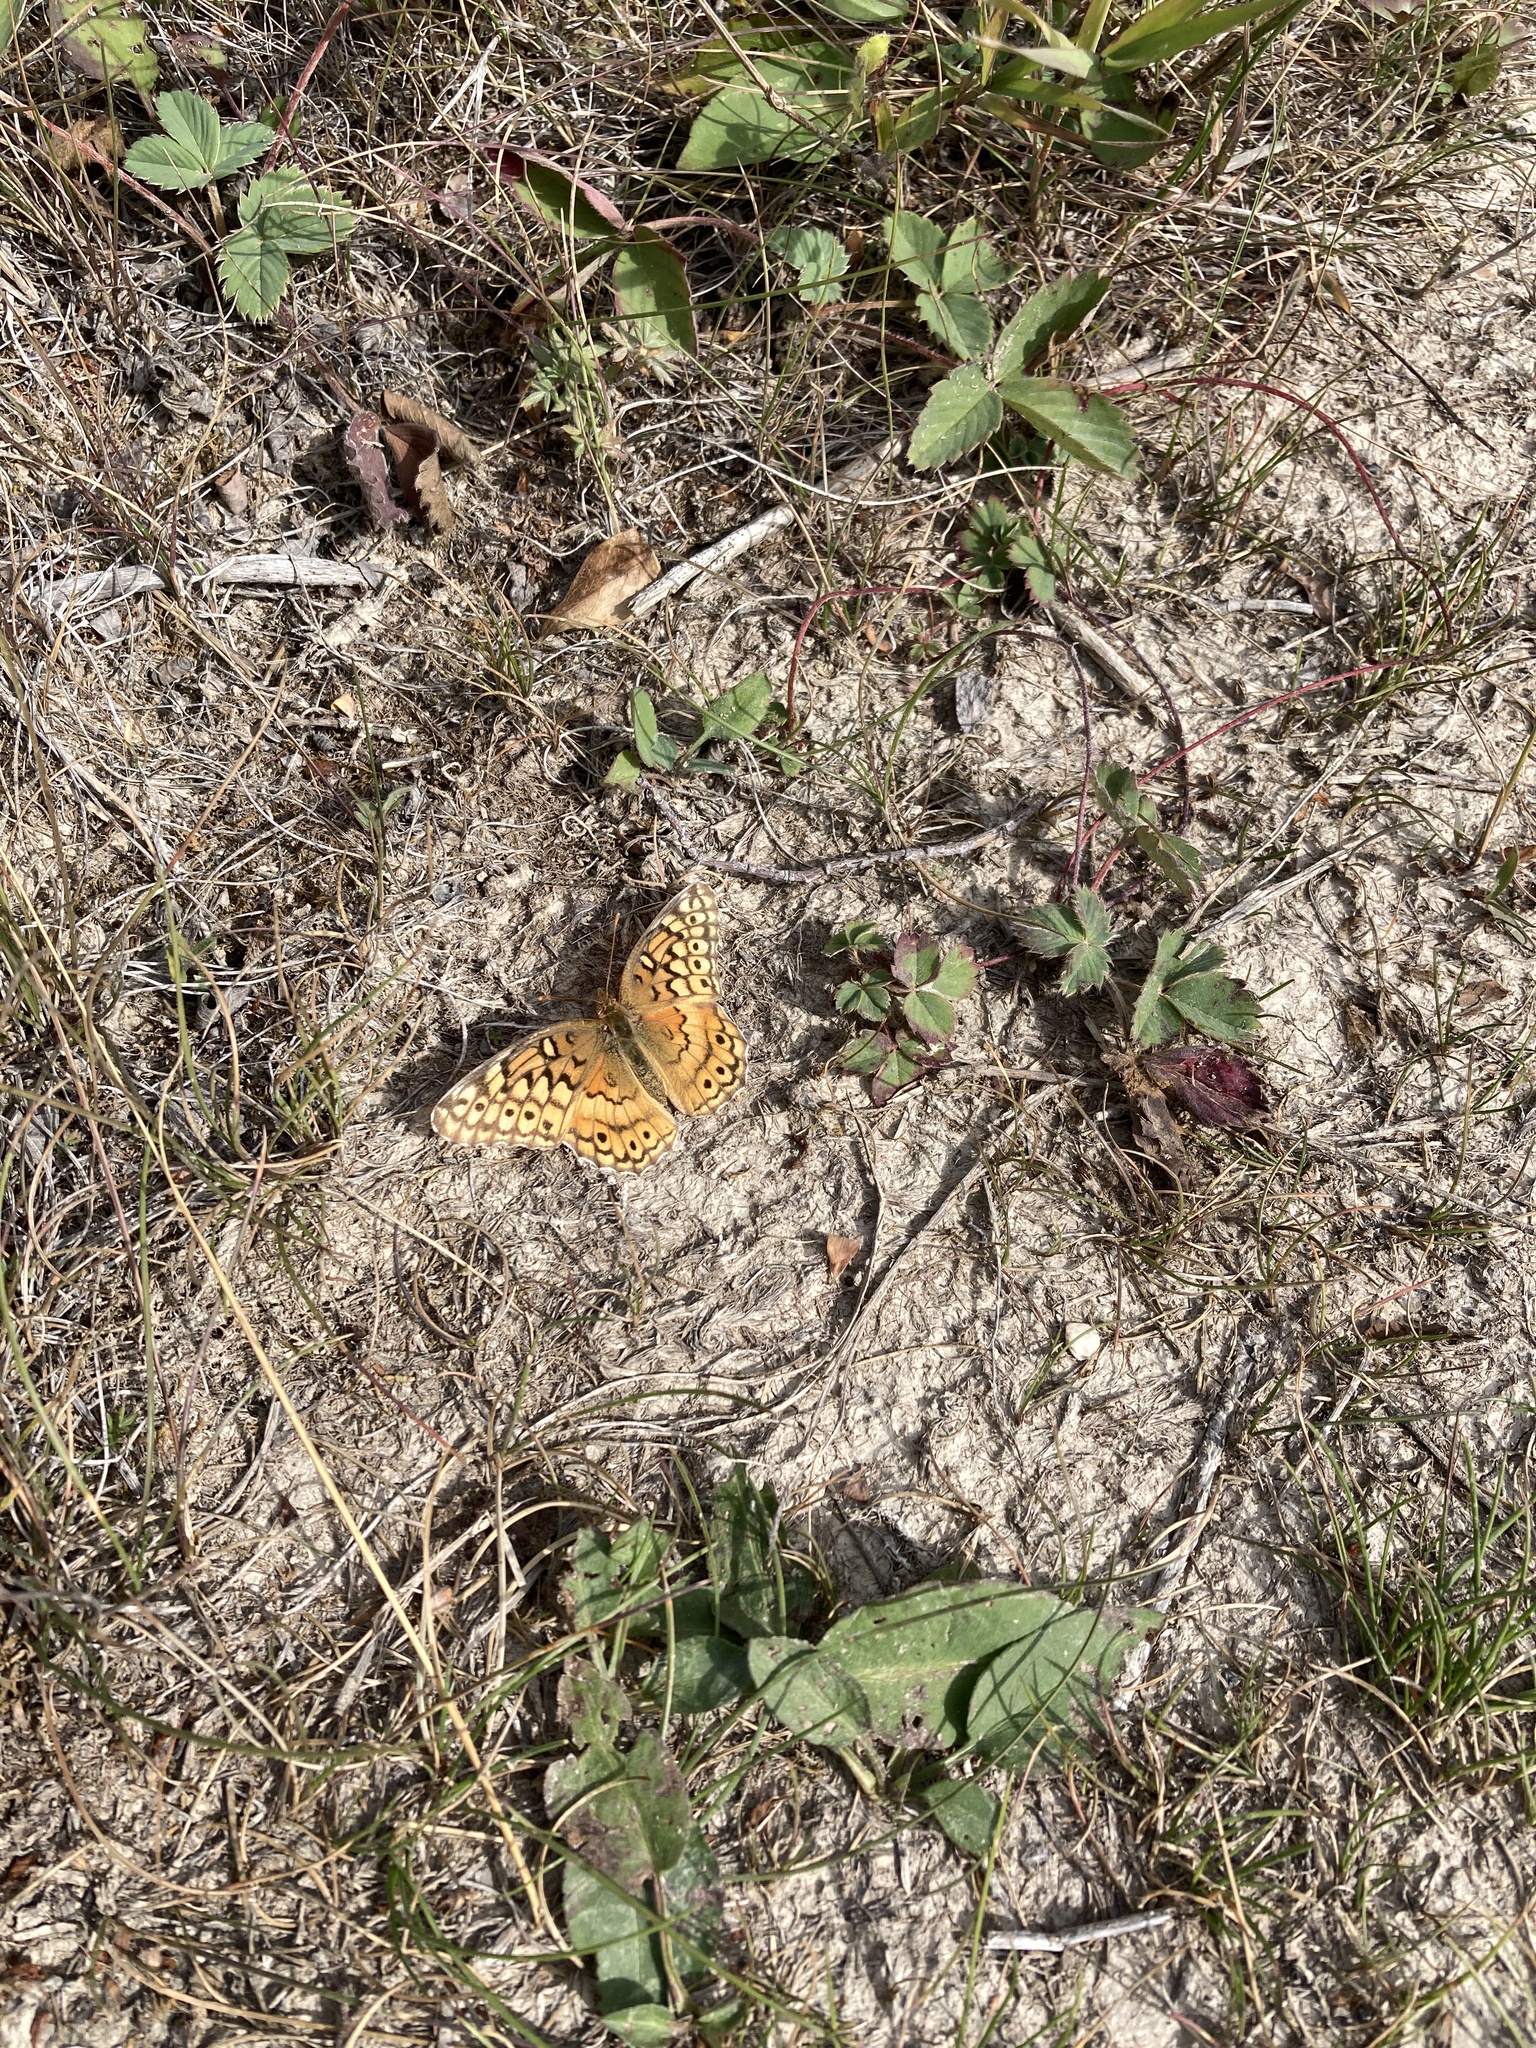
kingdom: Animalia
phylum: Arthropoda
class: Insecta
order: Lepidoptera
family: Nymphalidae
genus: Euptoieta
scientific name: Euptoieta claudia
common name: Variegated fritillary
